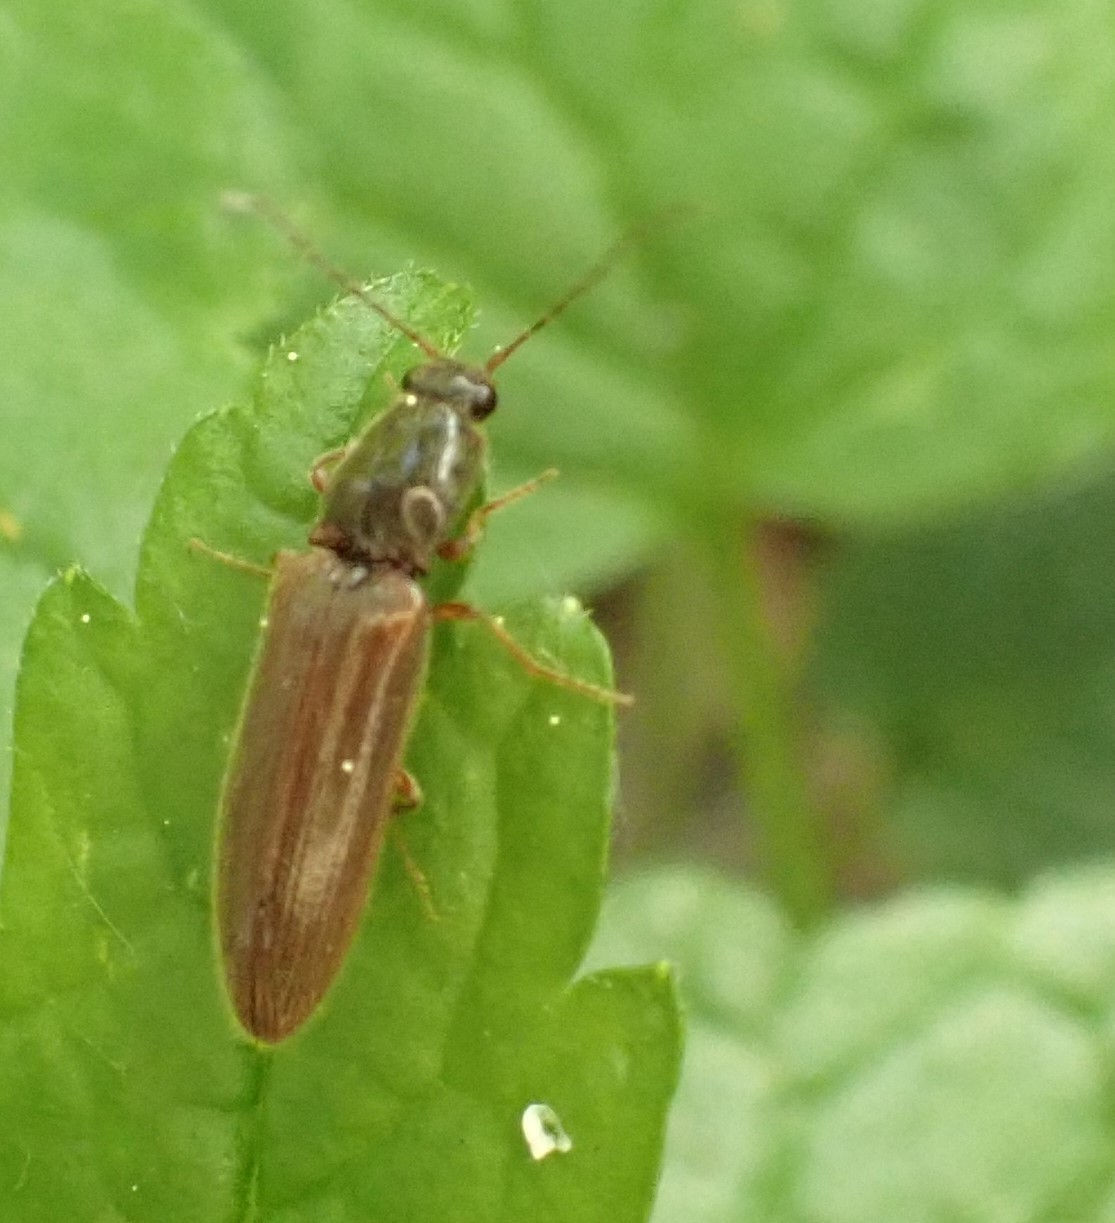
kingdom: Animalia
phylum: Arthropoda
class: Insecta
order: Coleoptera
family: Elateridae
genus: Athous
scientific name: Athous subfuscus
